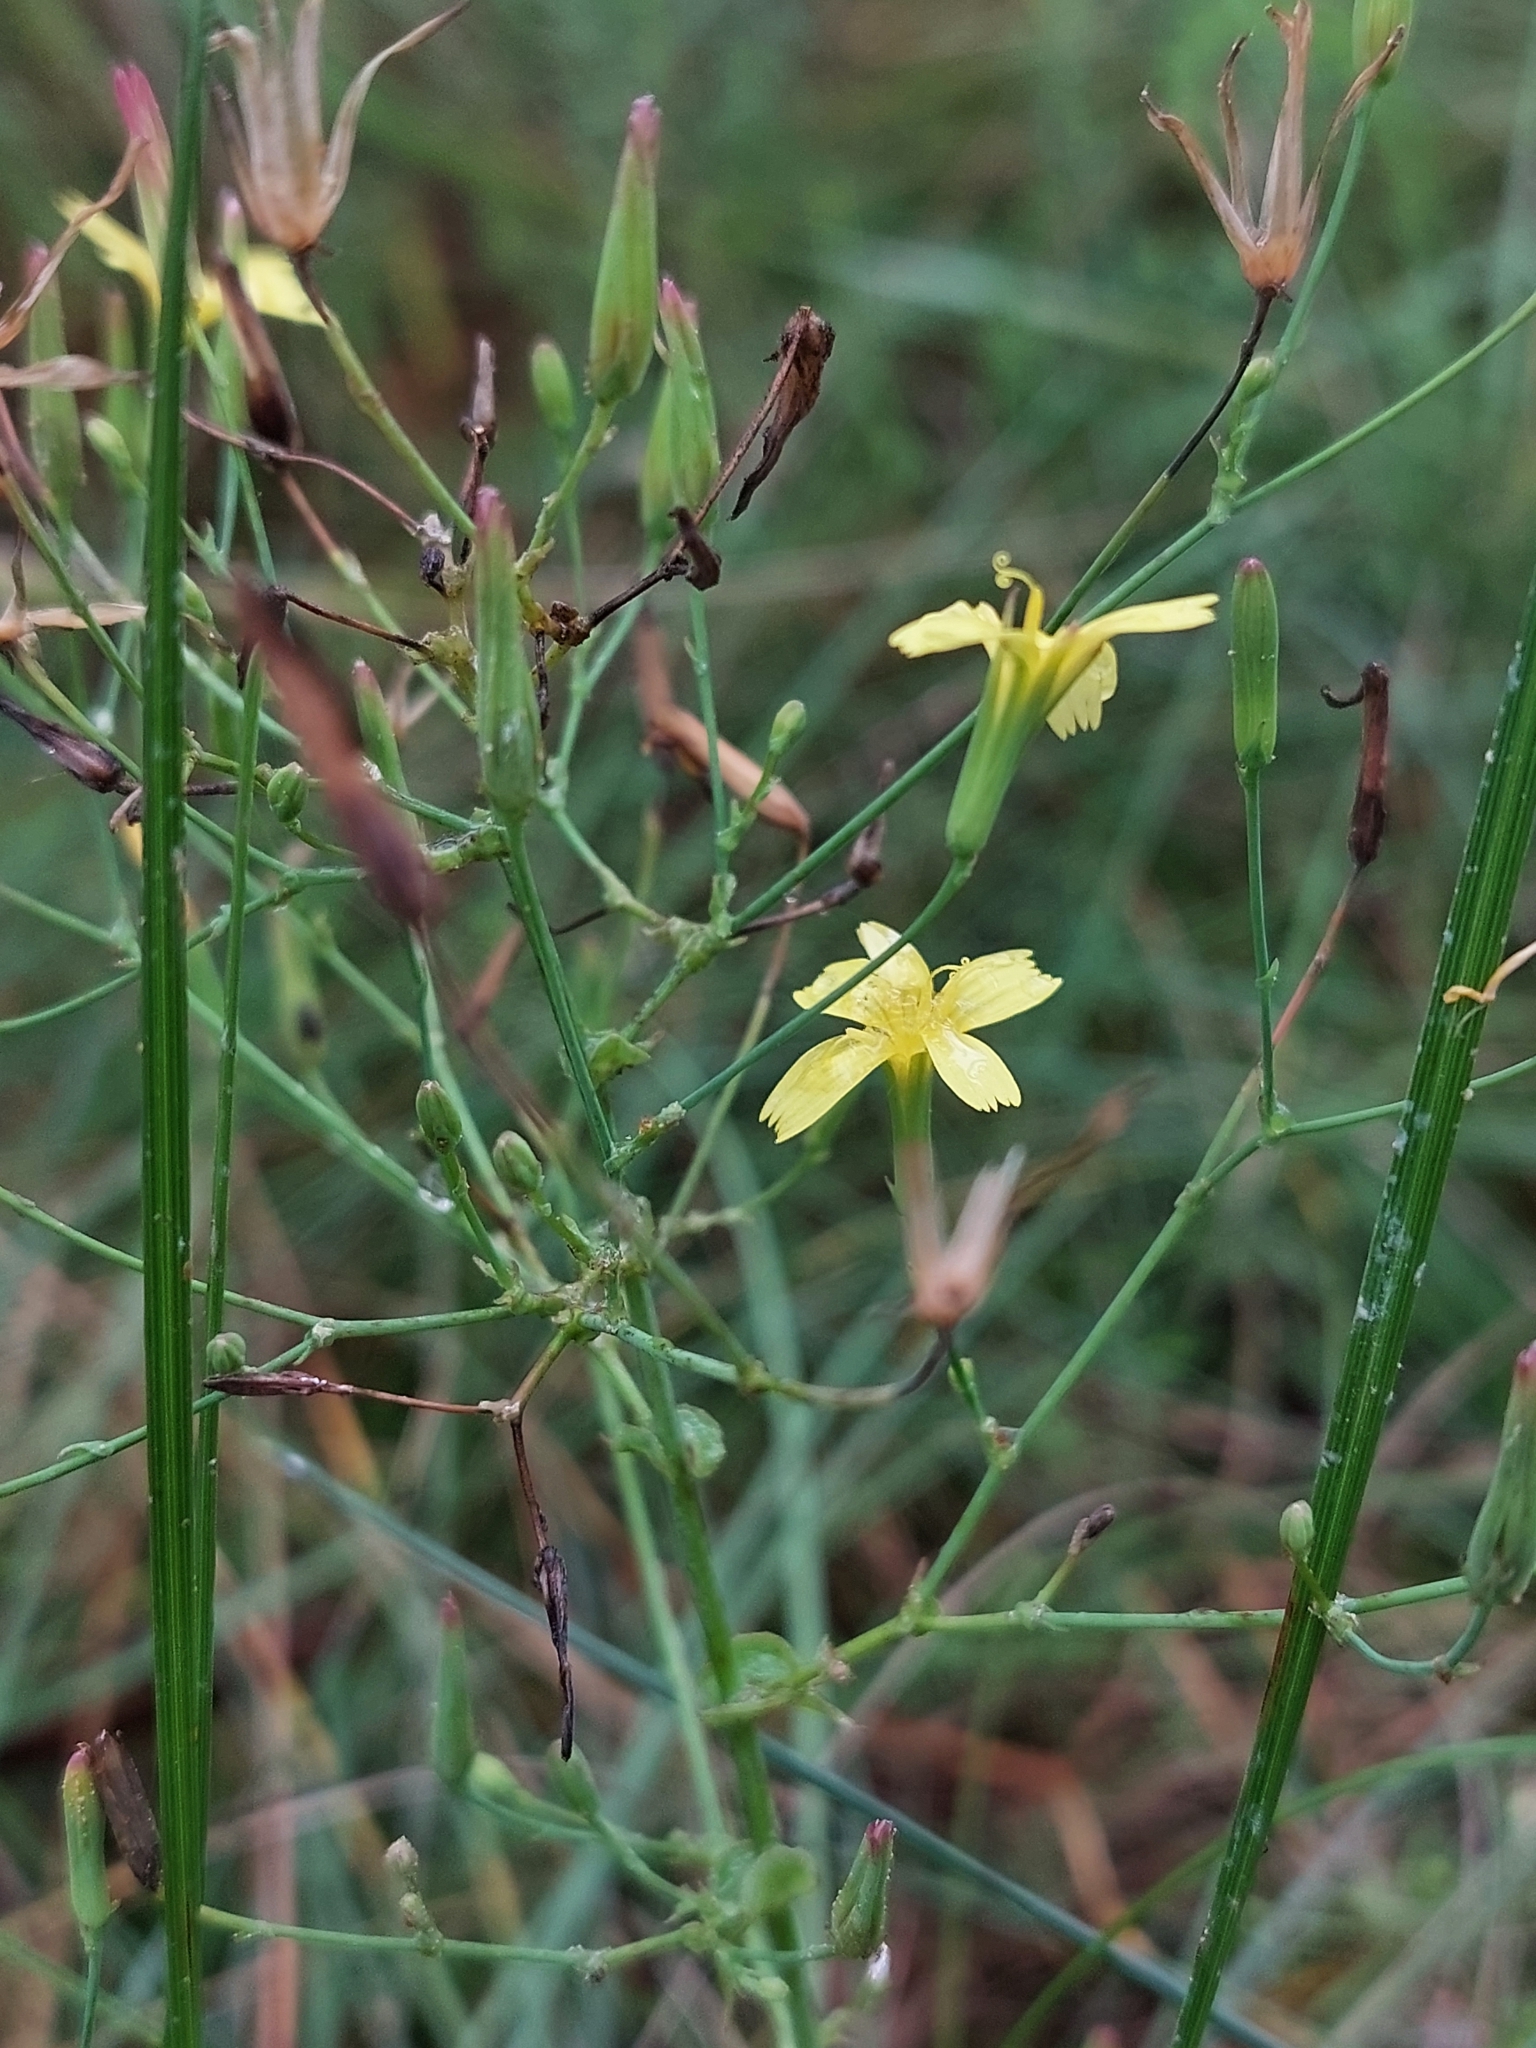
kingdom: Plantae
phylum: Tracheophyta
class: Magnoliopsida
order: Asterales
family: Asteraceae
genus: Mycelis
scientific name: Mycelis muralis
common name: Wall lettuce
